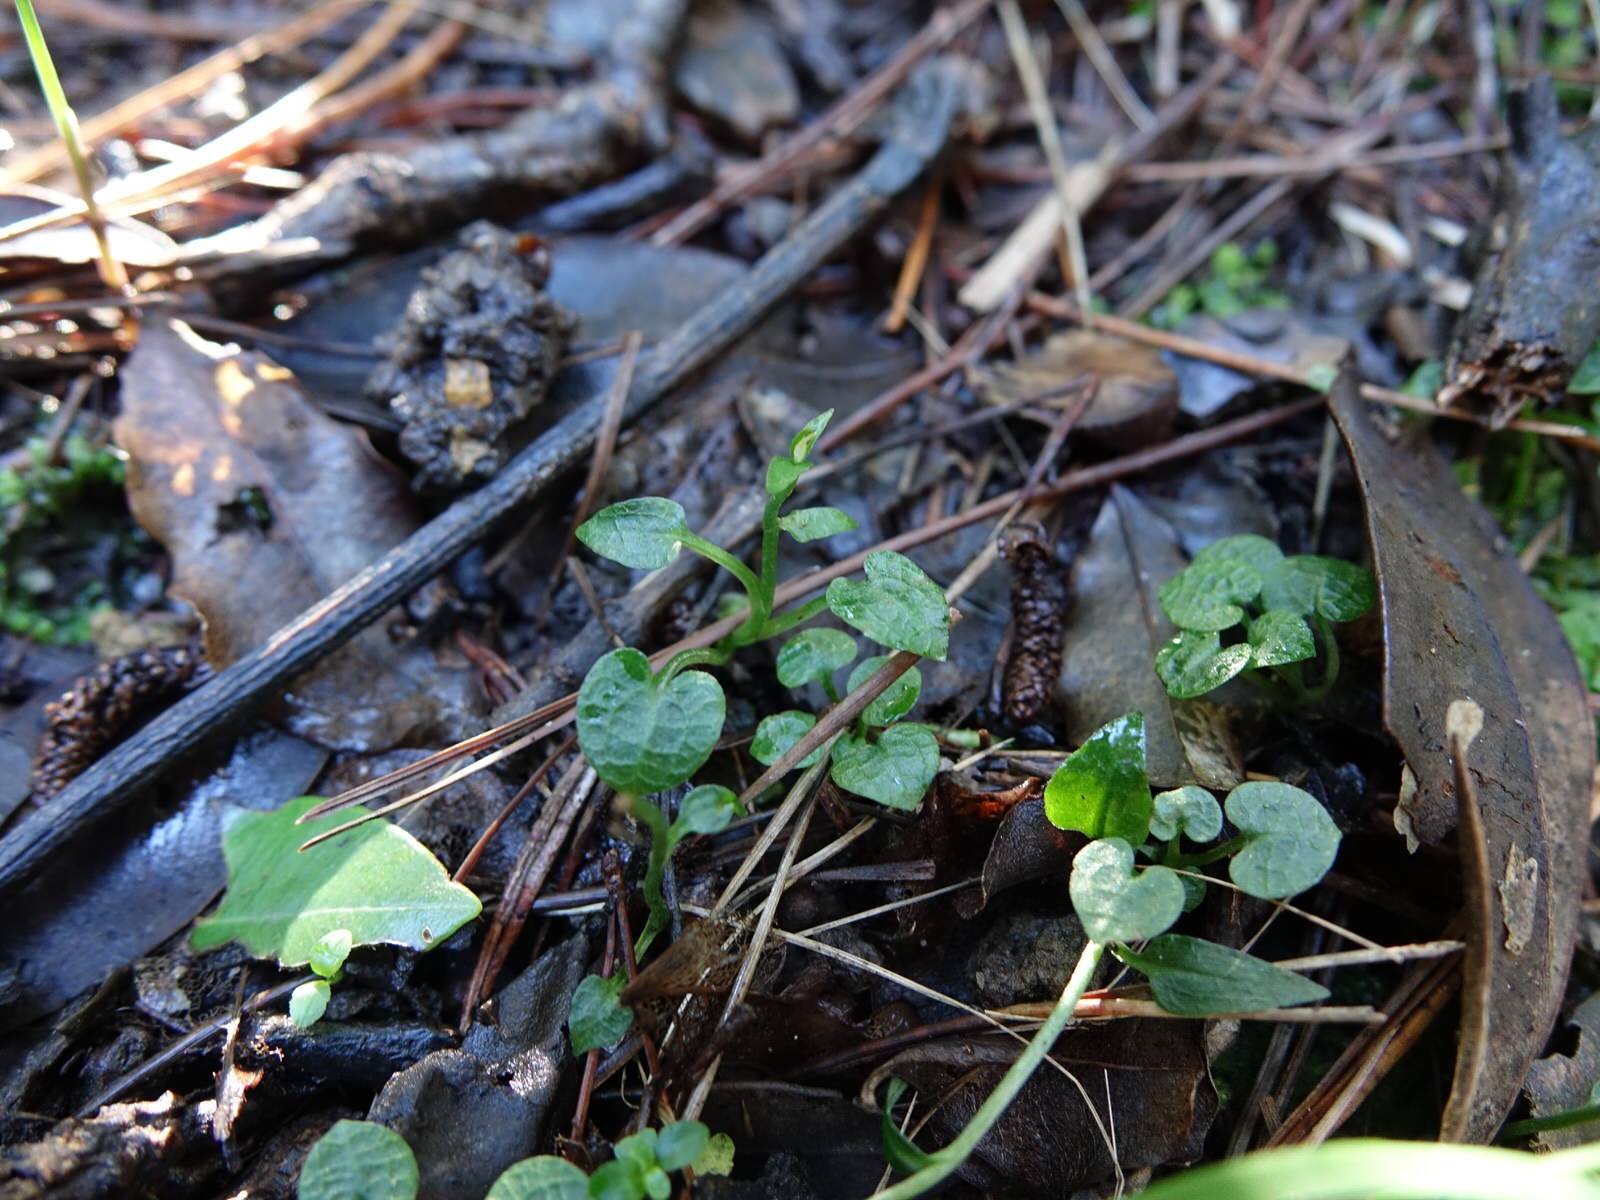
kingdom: Plantae
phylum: Tracheophyta
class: Liliopsida
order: Asparagales
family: Orchidaceae
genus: Pterostylis
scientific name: Pterostylis trullifolia
